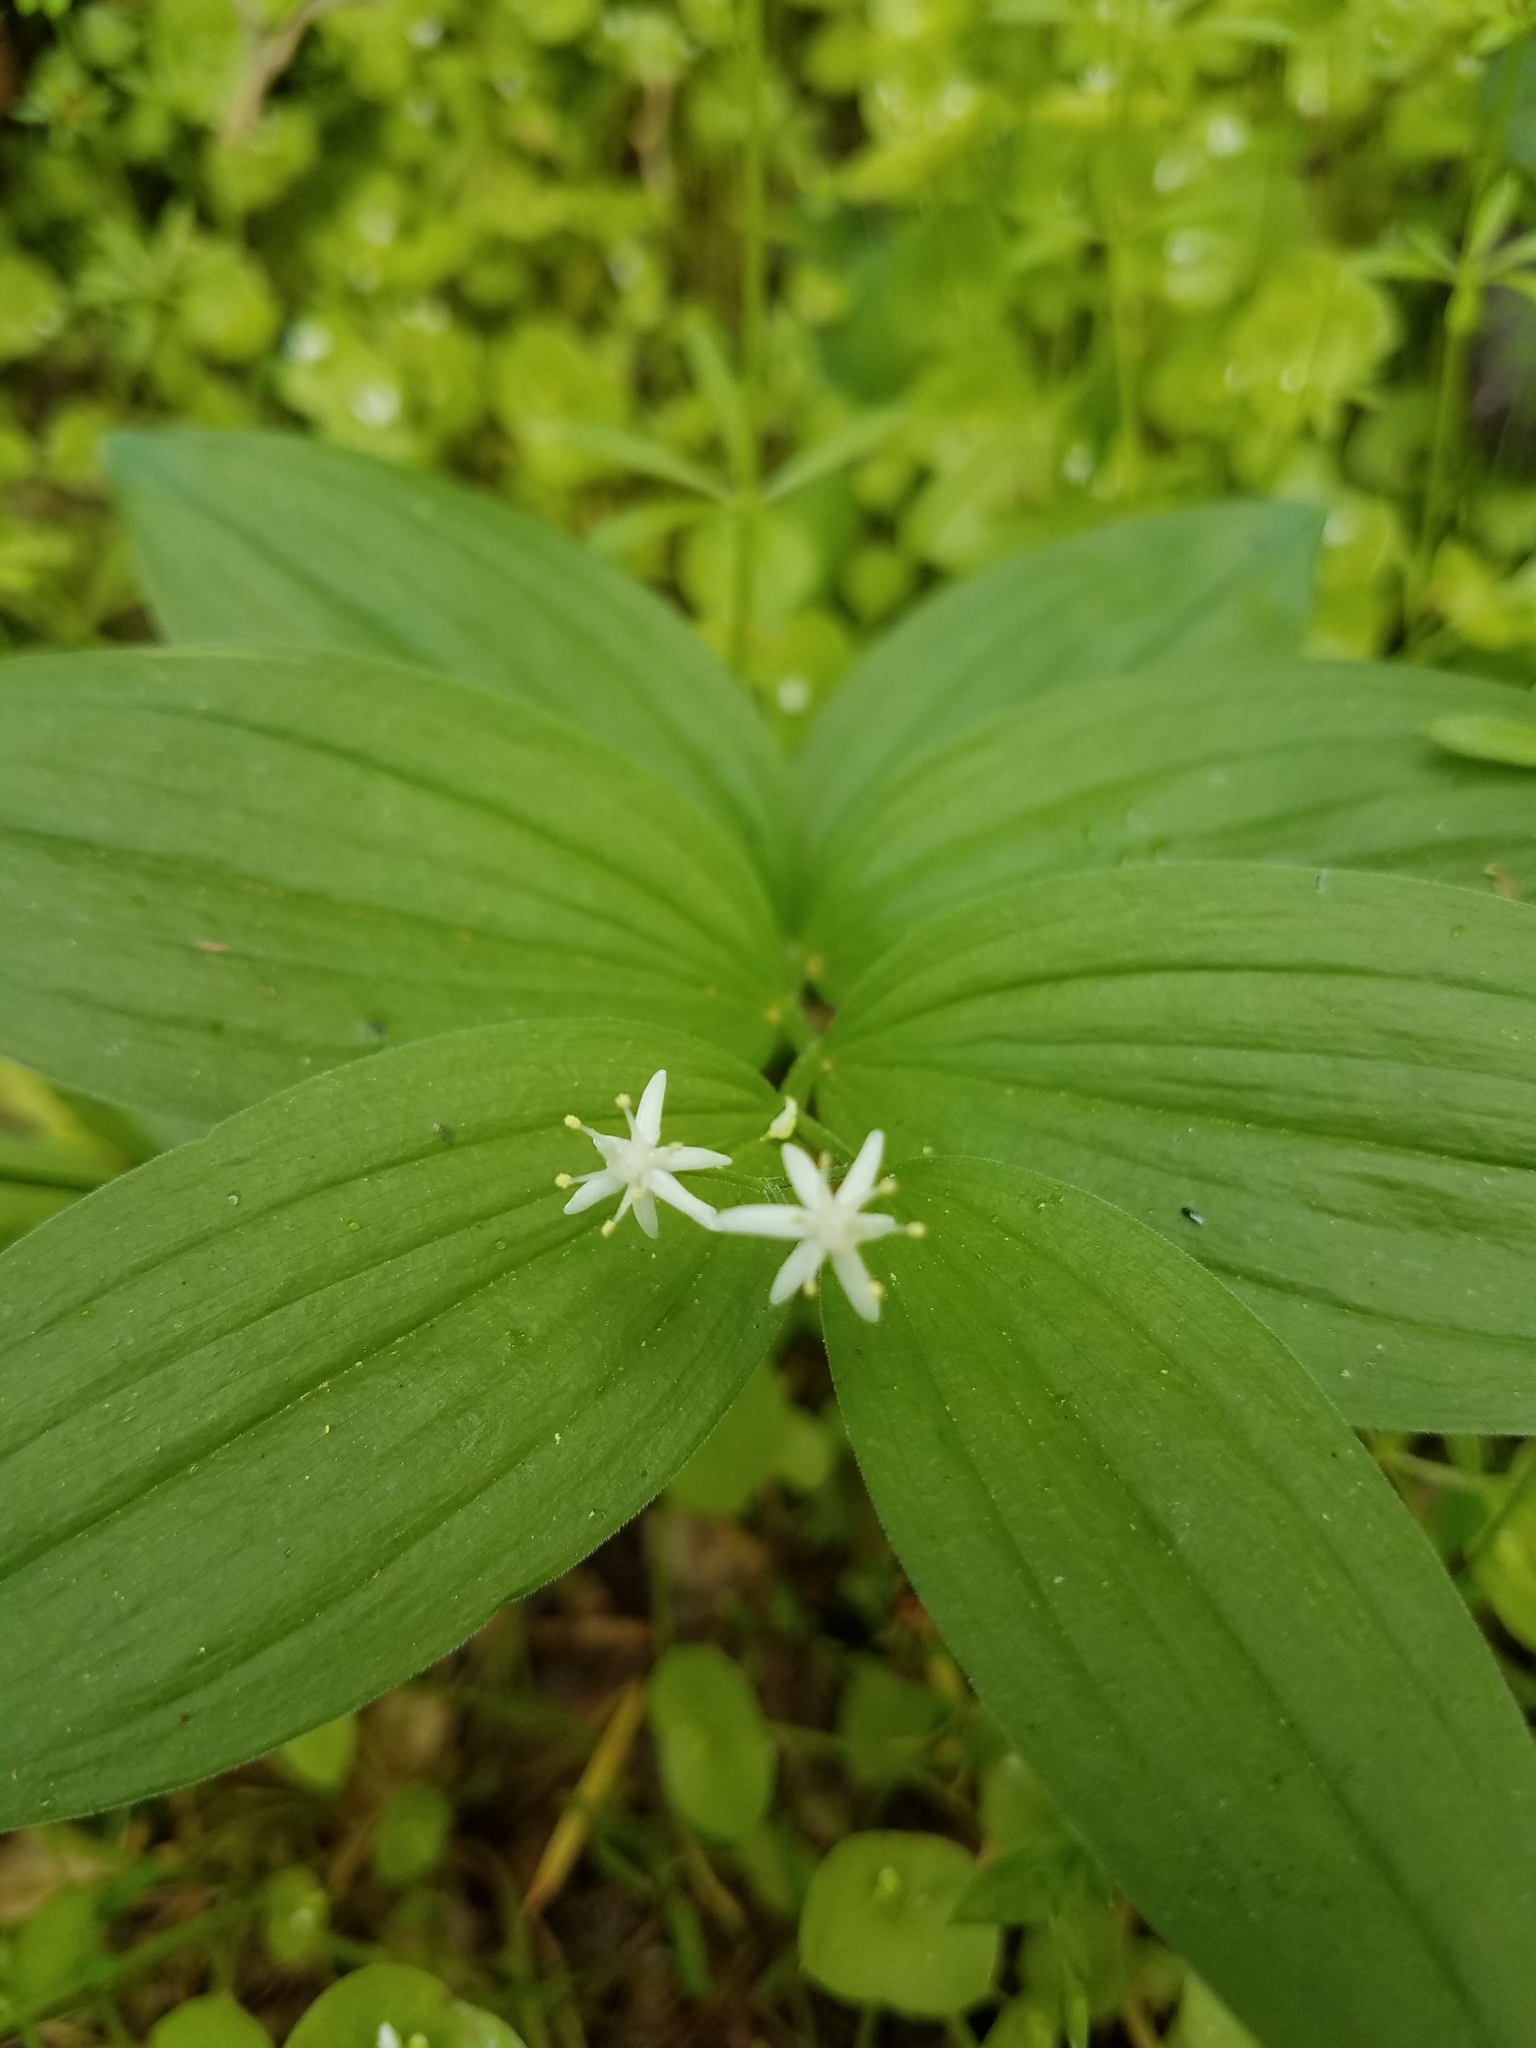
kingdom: Plantae
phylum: Tracheophyta
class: Liliopsida
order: Asparagales
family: Asparagaceae
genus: Maianthemum
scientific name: Maianthemum stellatum
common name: Little false solomon's seal
